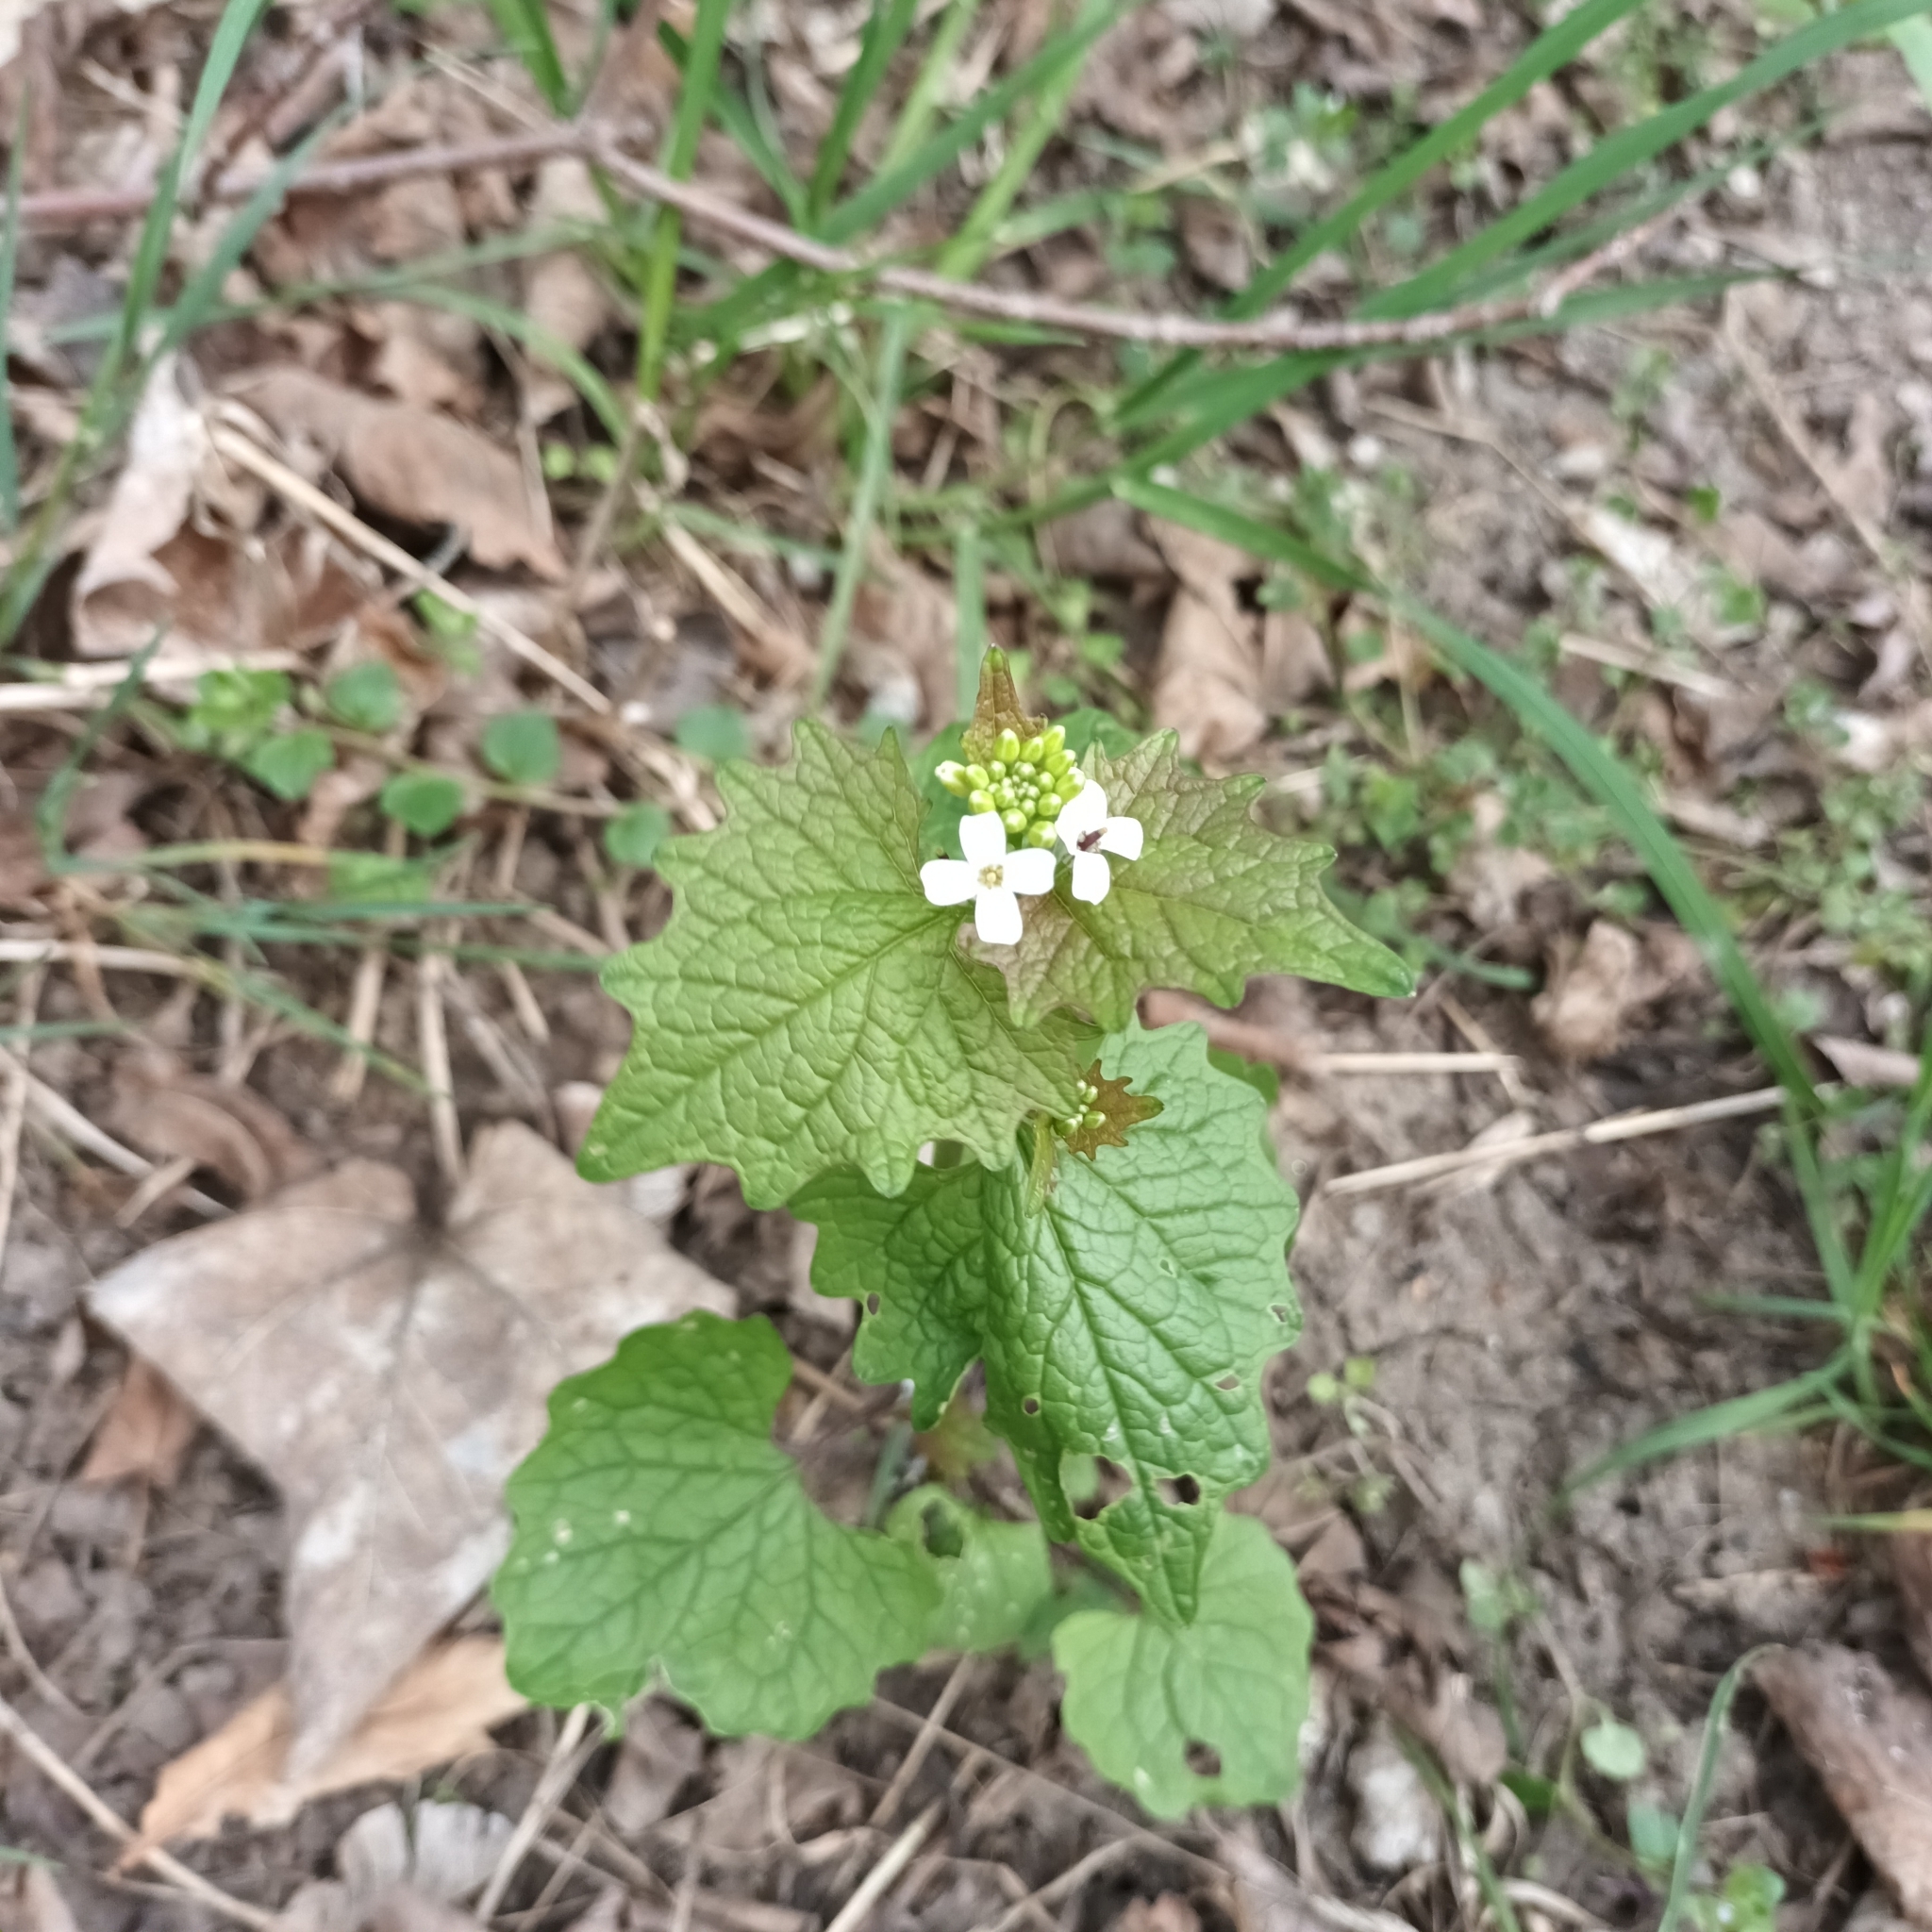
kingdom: Plantae
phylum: Tracheophyta
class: Magnoliopsida
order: Brassicales
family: Brassicaceae
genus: Alliaria
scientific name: Alliaria petiolata
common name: Garlic mustard
